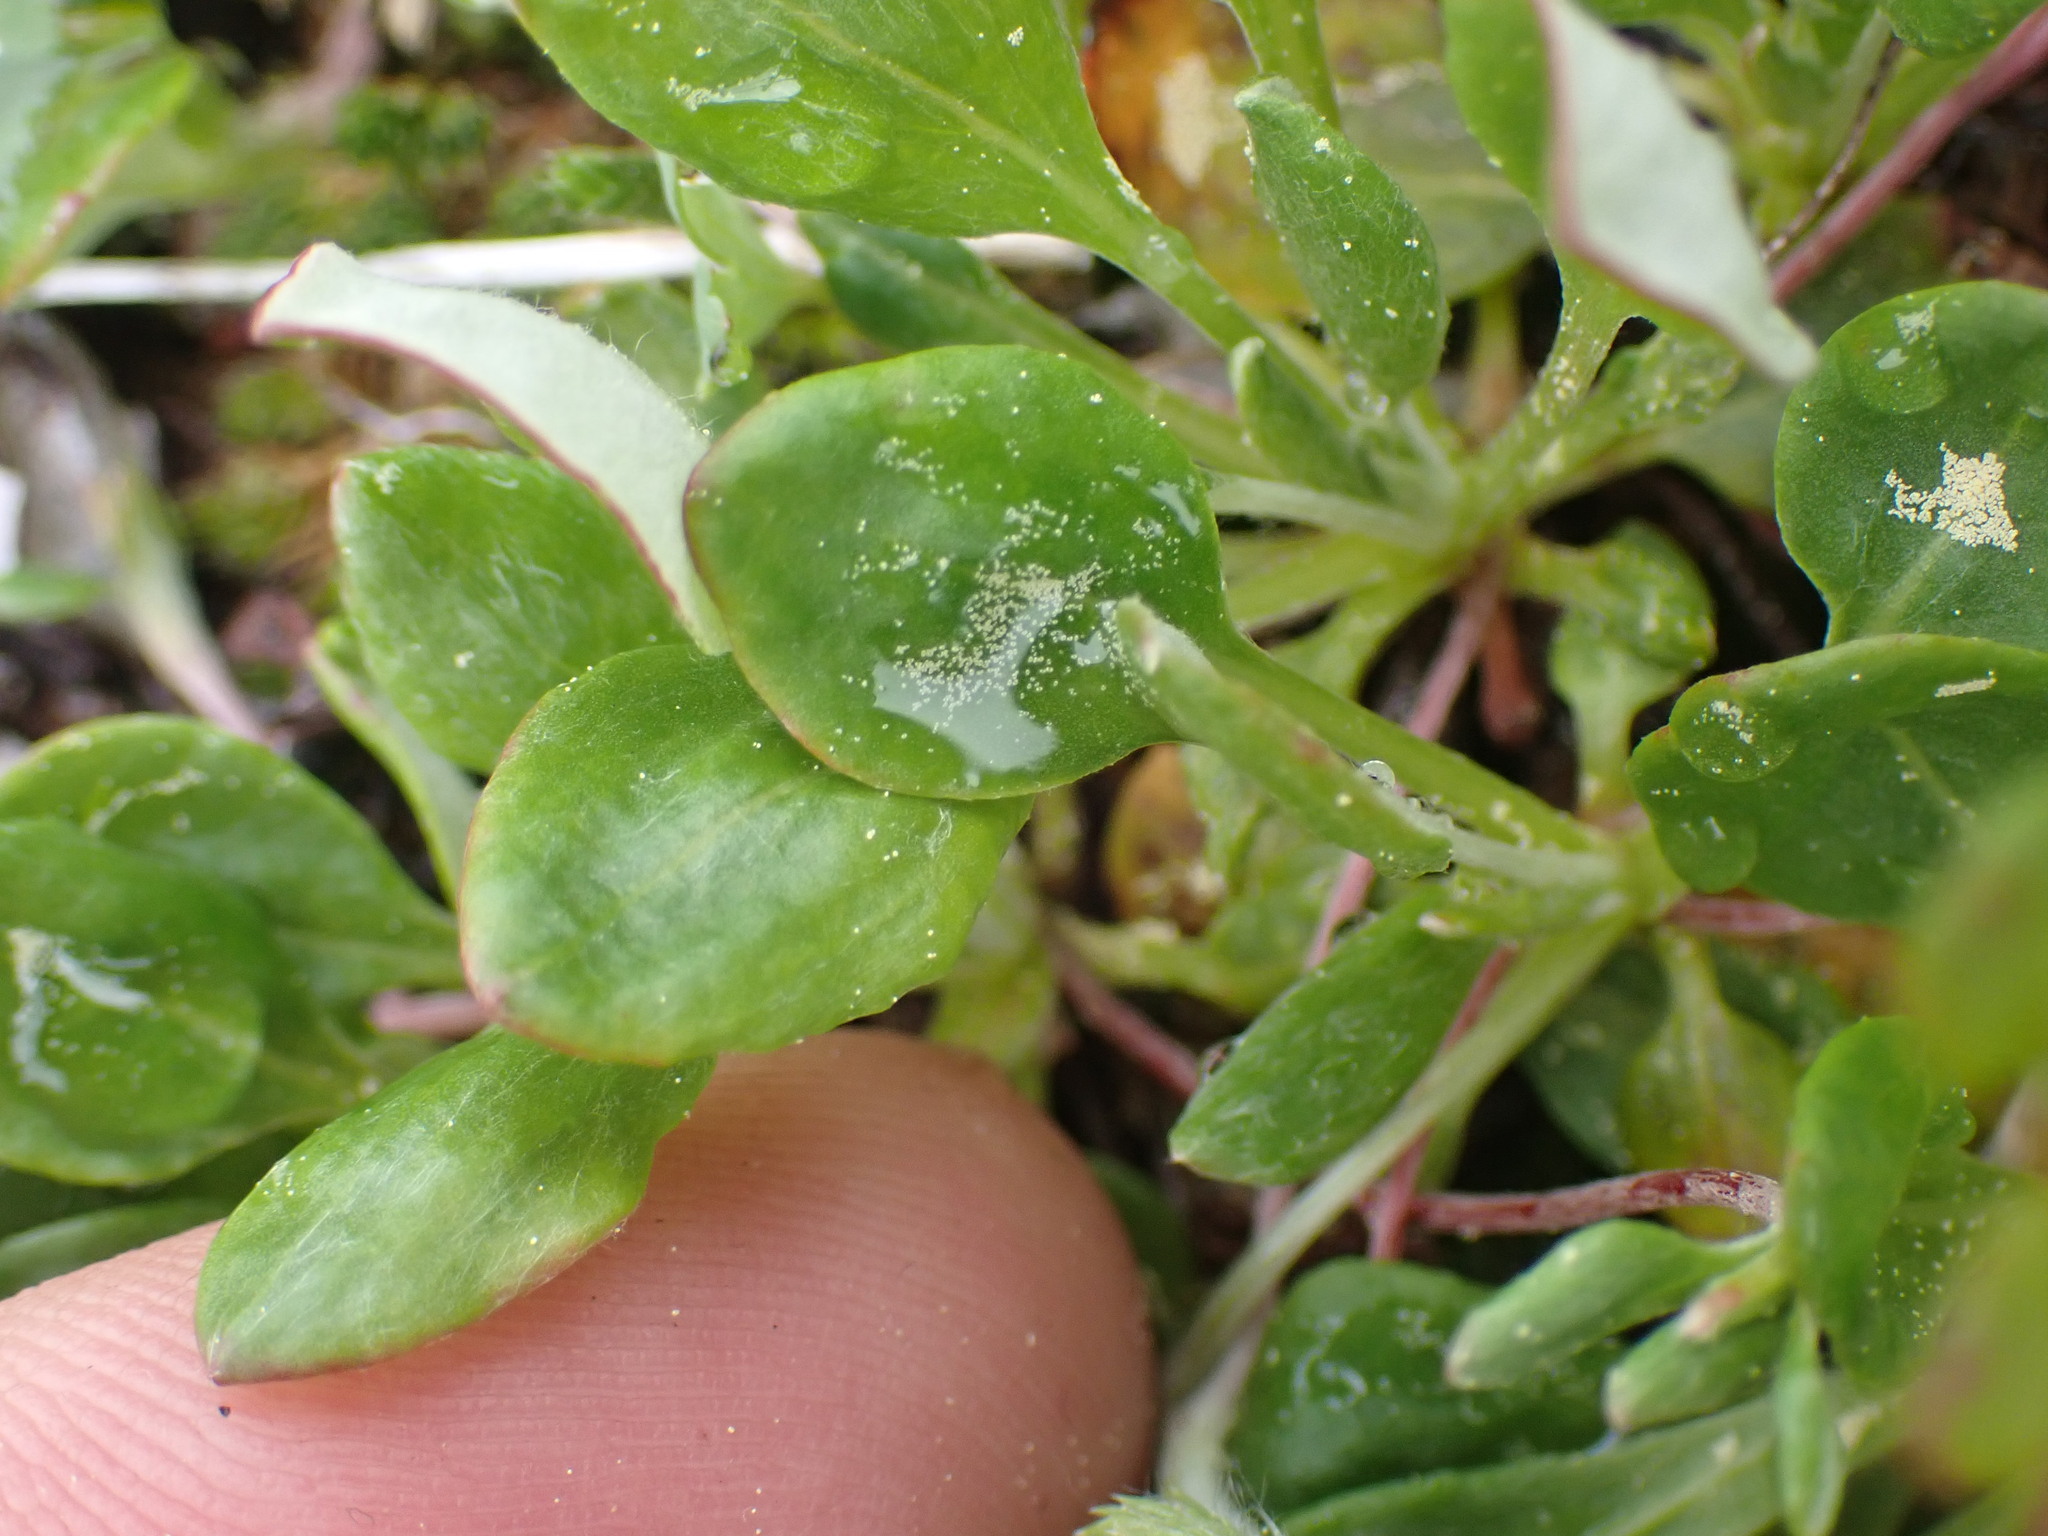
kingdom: Plantae
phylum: Tracheophyta
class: Magnoliopsida
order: Caryophyllales
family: Polygonaceae
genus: Eriogonum
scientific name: Eriogonum umbellatum
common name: Sulfur-buckwheat
